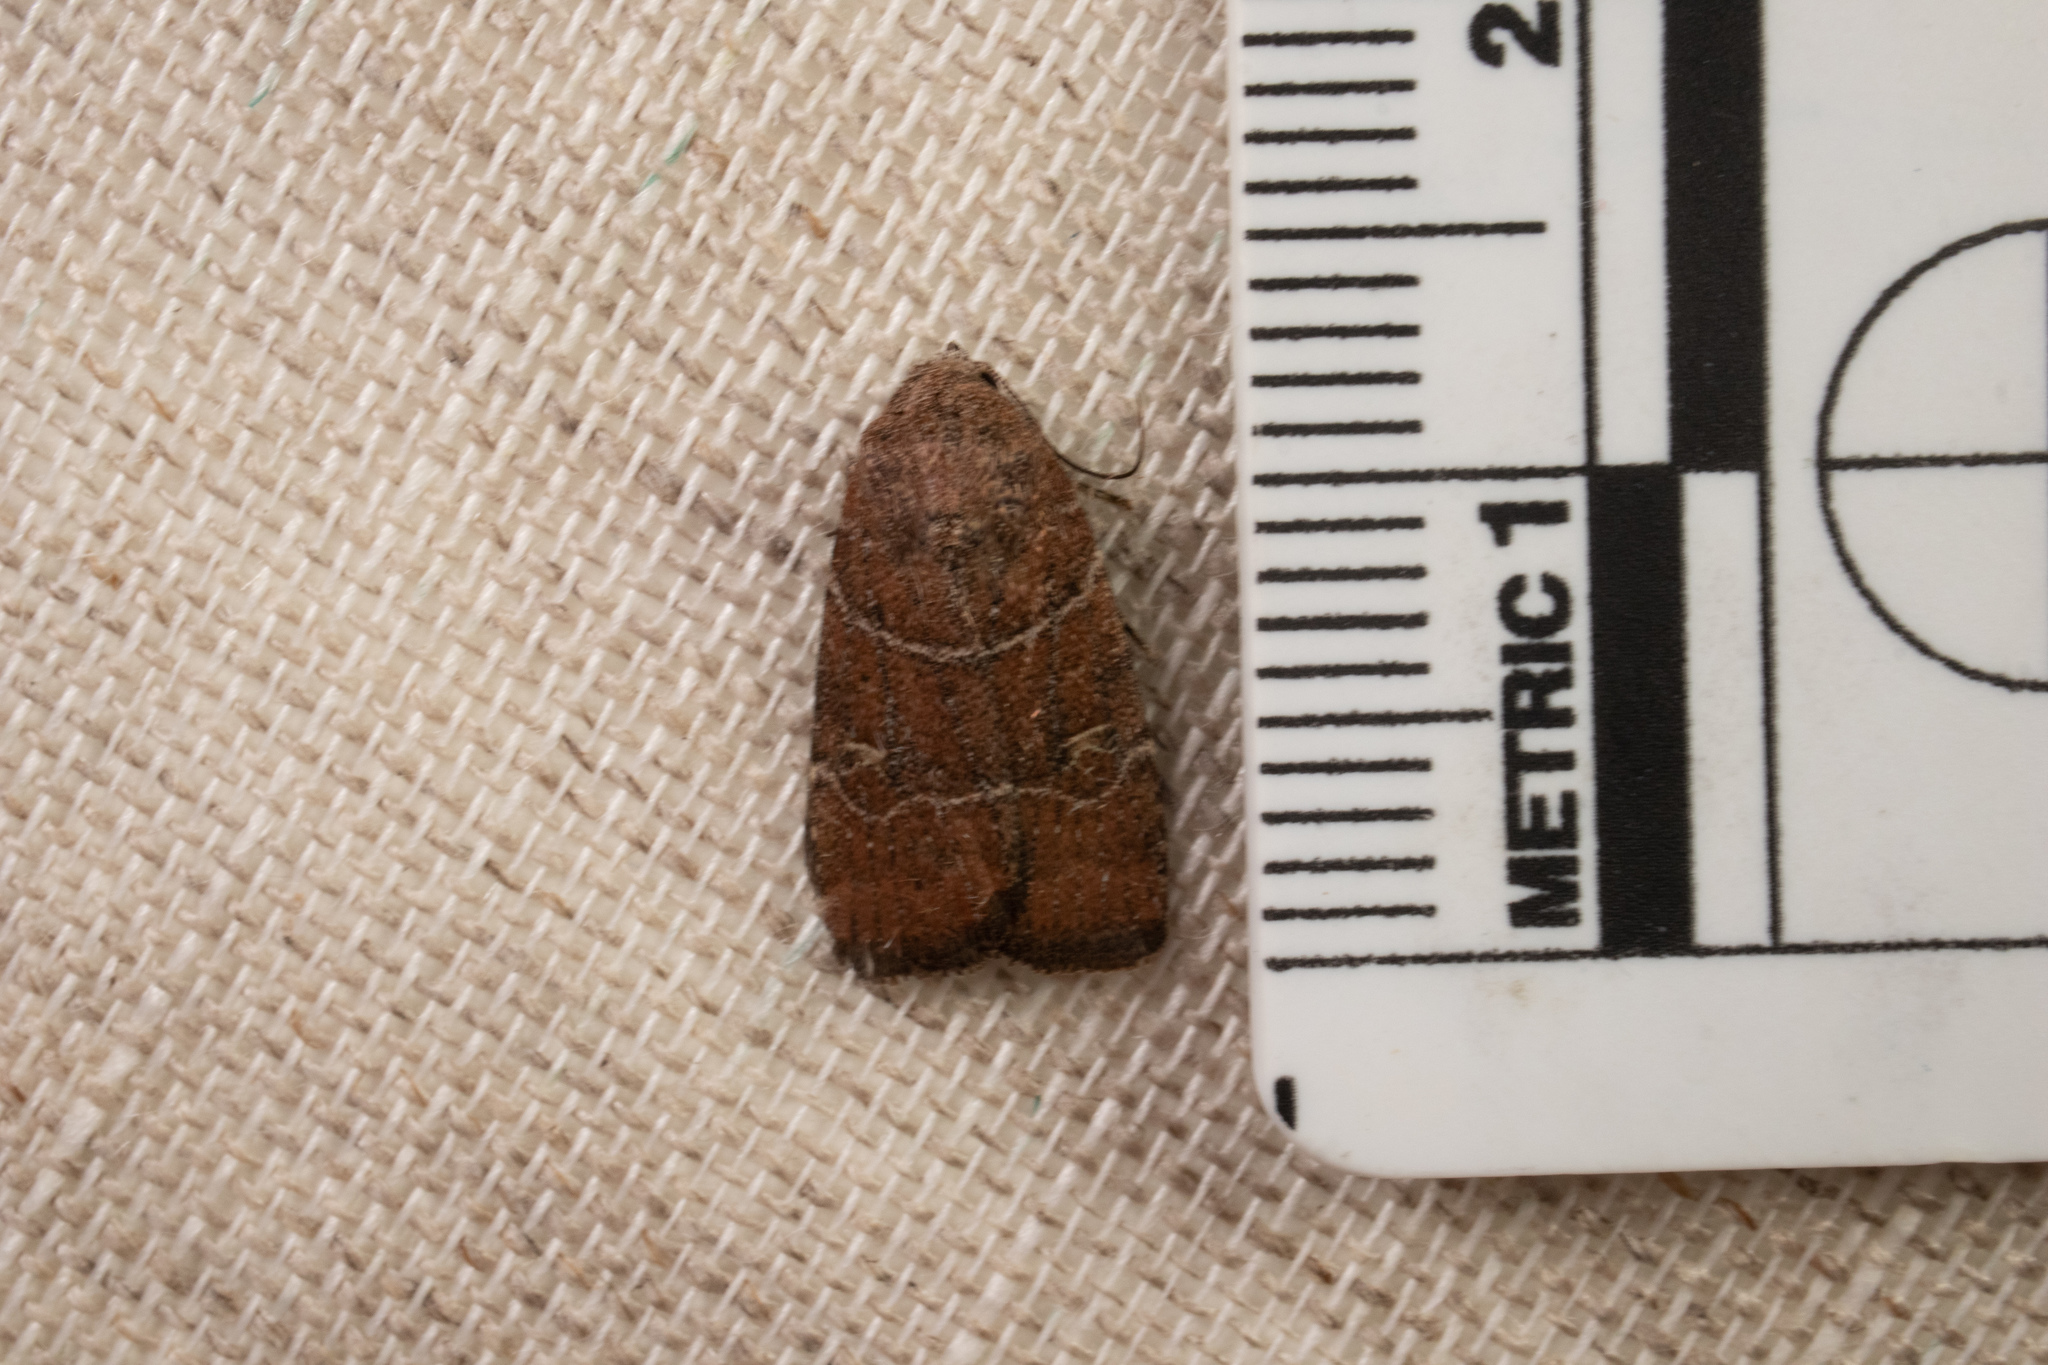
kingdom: Animalia
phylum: Arthropoda
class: Insecta
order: Lepidoptera
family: Noctuidae
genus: Elaphria
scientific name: Elaphria grata
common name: Grateful midget moth
